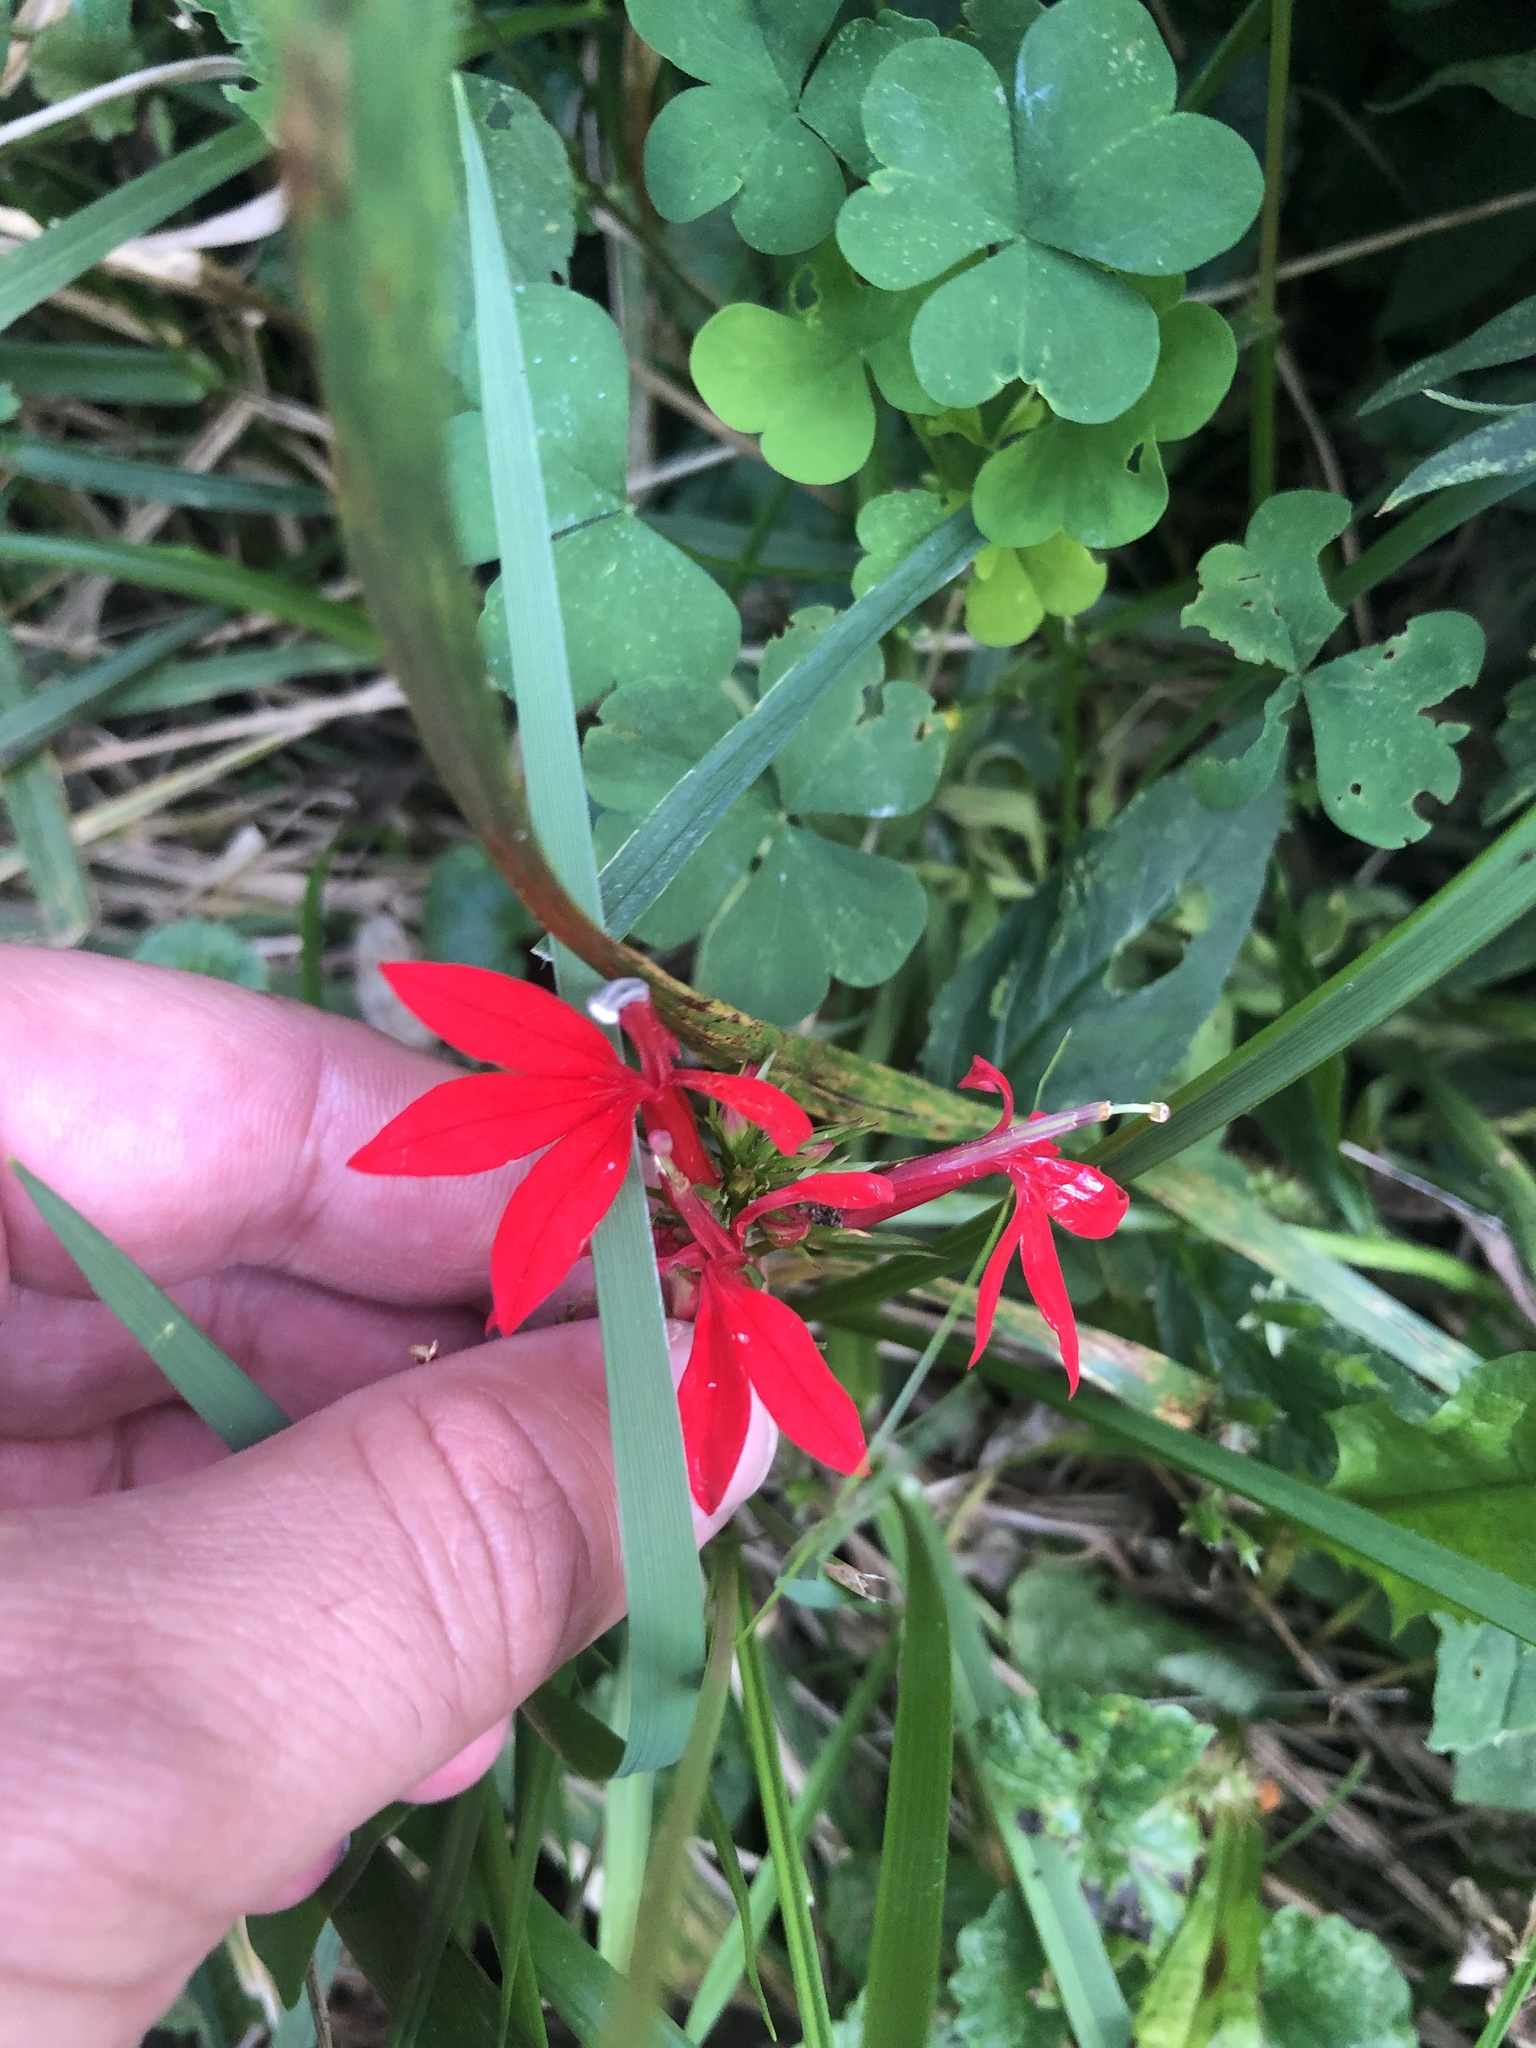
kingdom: Plantae
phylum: Tracheophyta
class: Magnoliopsida
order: Asterales
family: Campanulaceae
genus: Lobelia
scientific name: Lobelia cardinalis
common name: Cardinal flower
